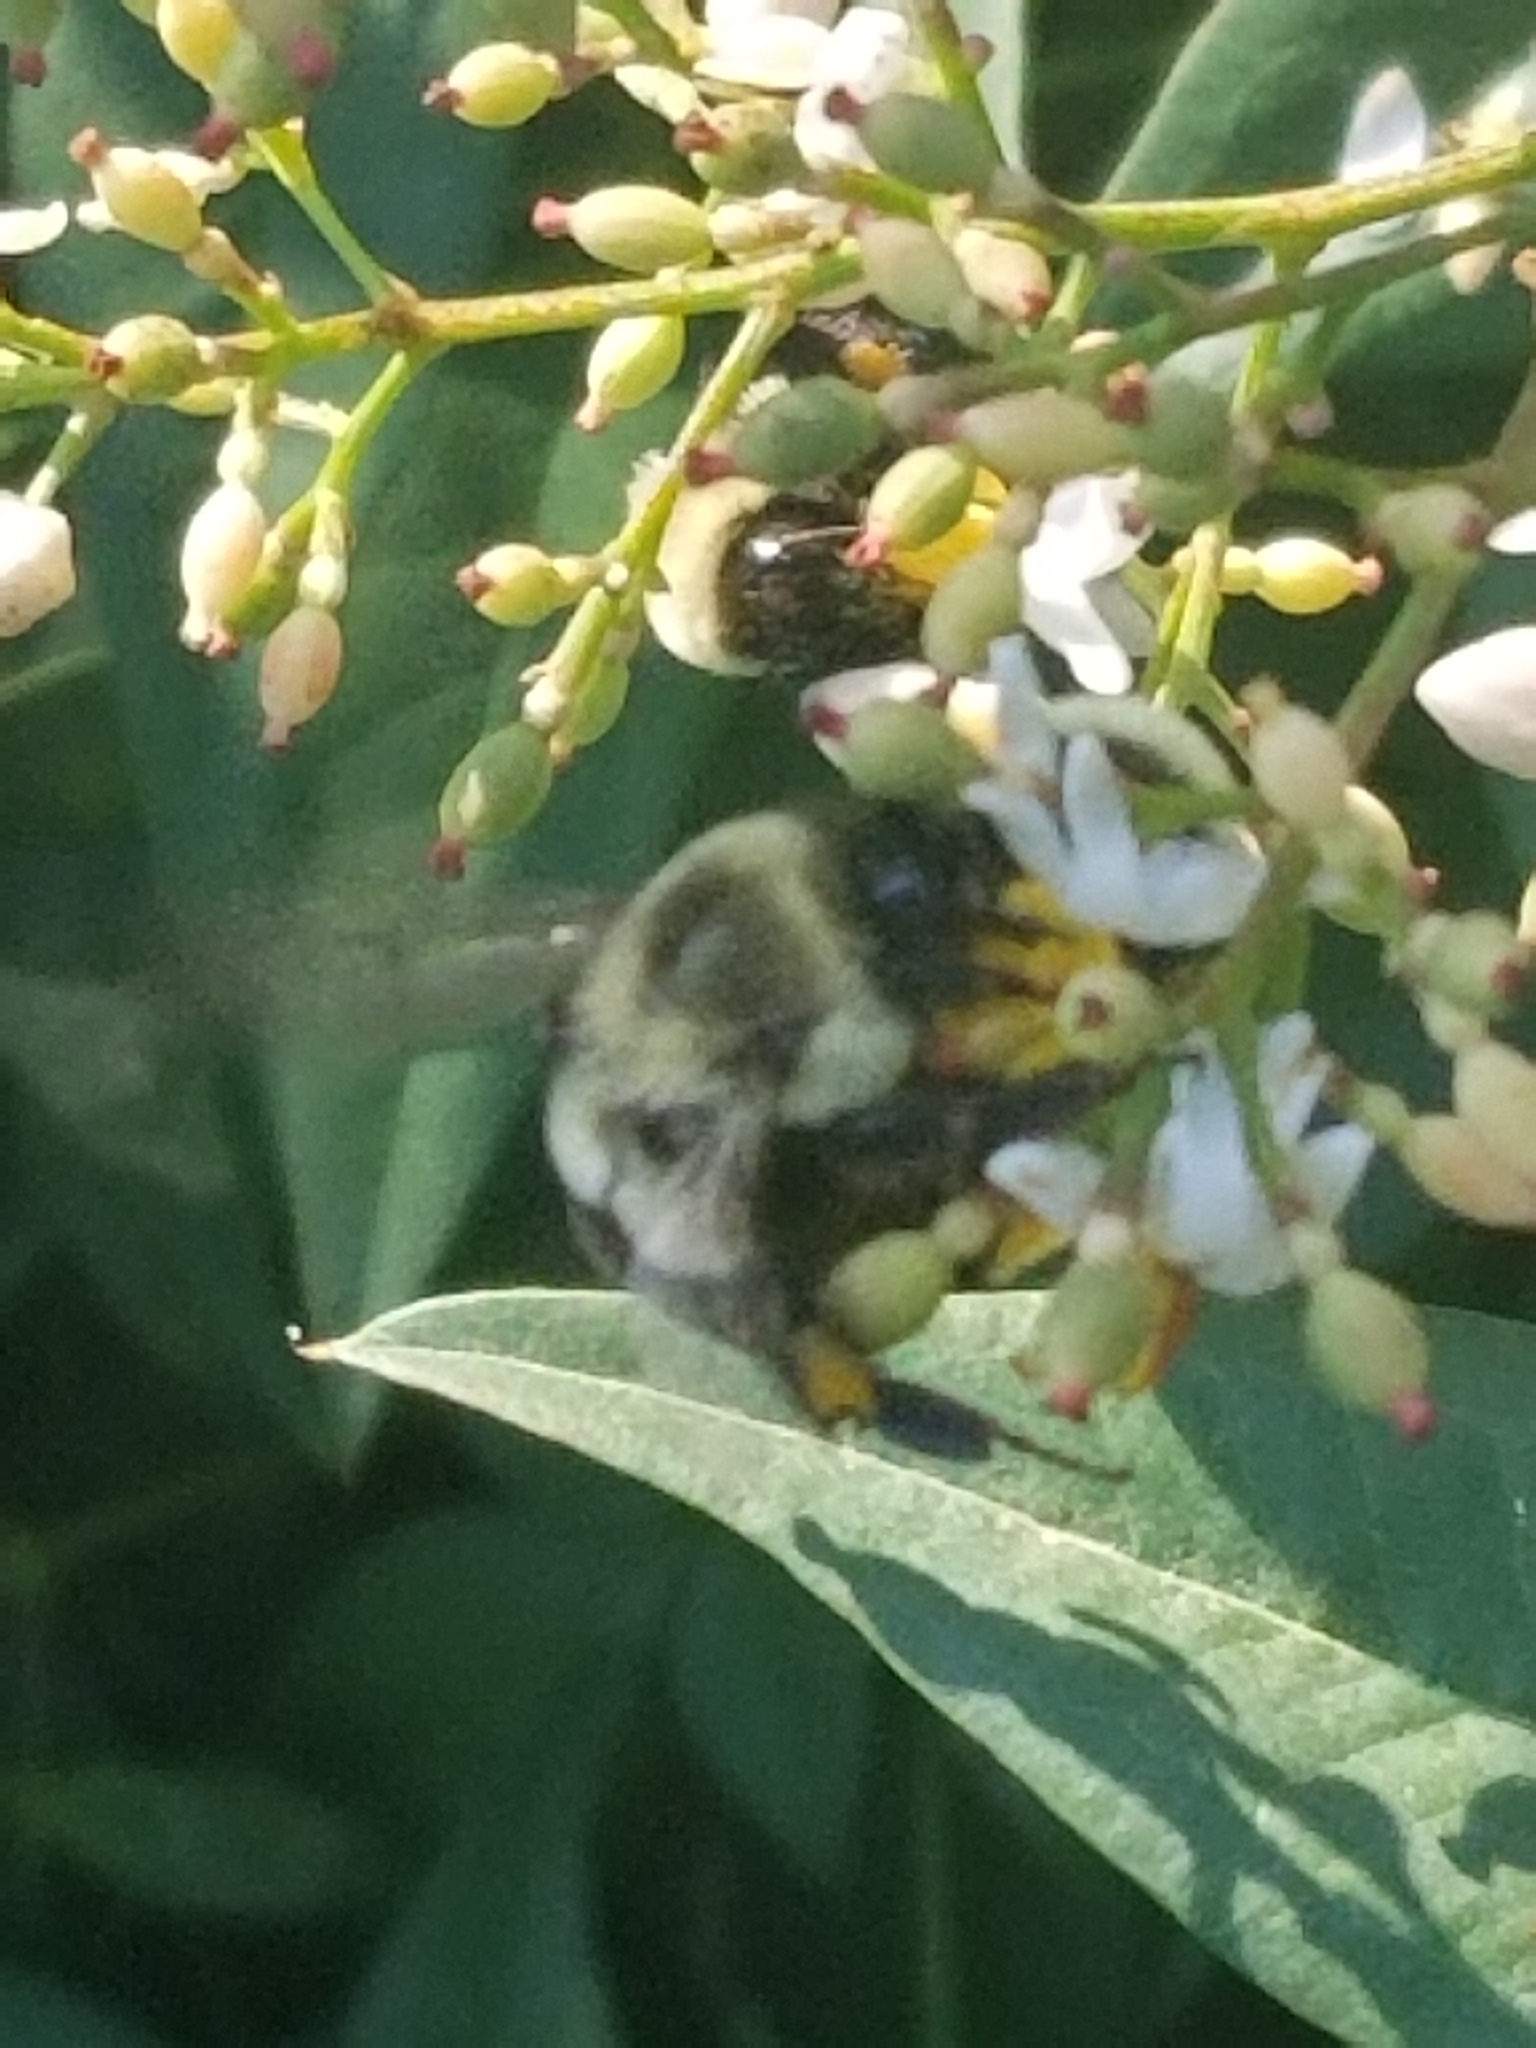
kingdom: Animalia
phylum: Arthropoda
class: Insecta
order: Hymenoptera
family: Apidae
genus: Bombus
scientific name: Bombus impatiens
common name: Common eastern bumble bee
